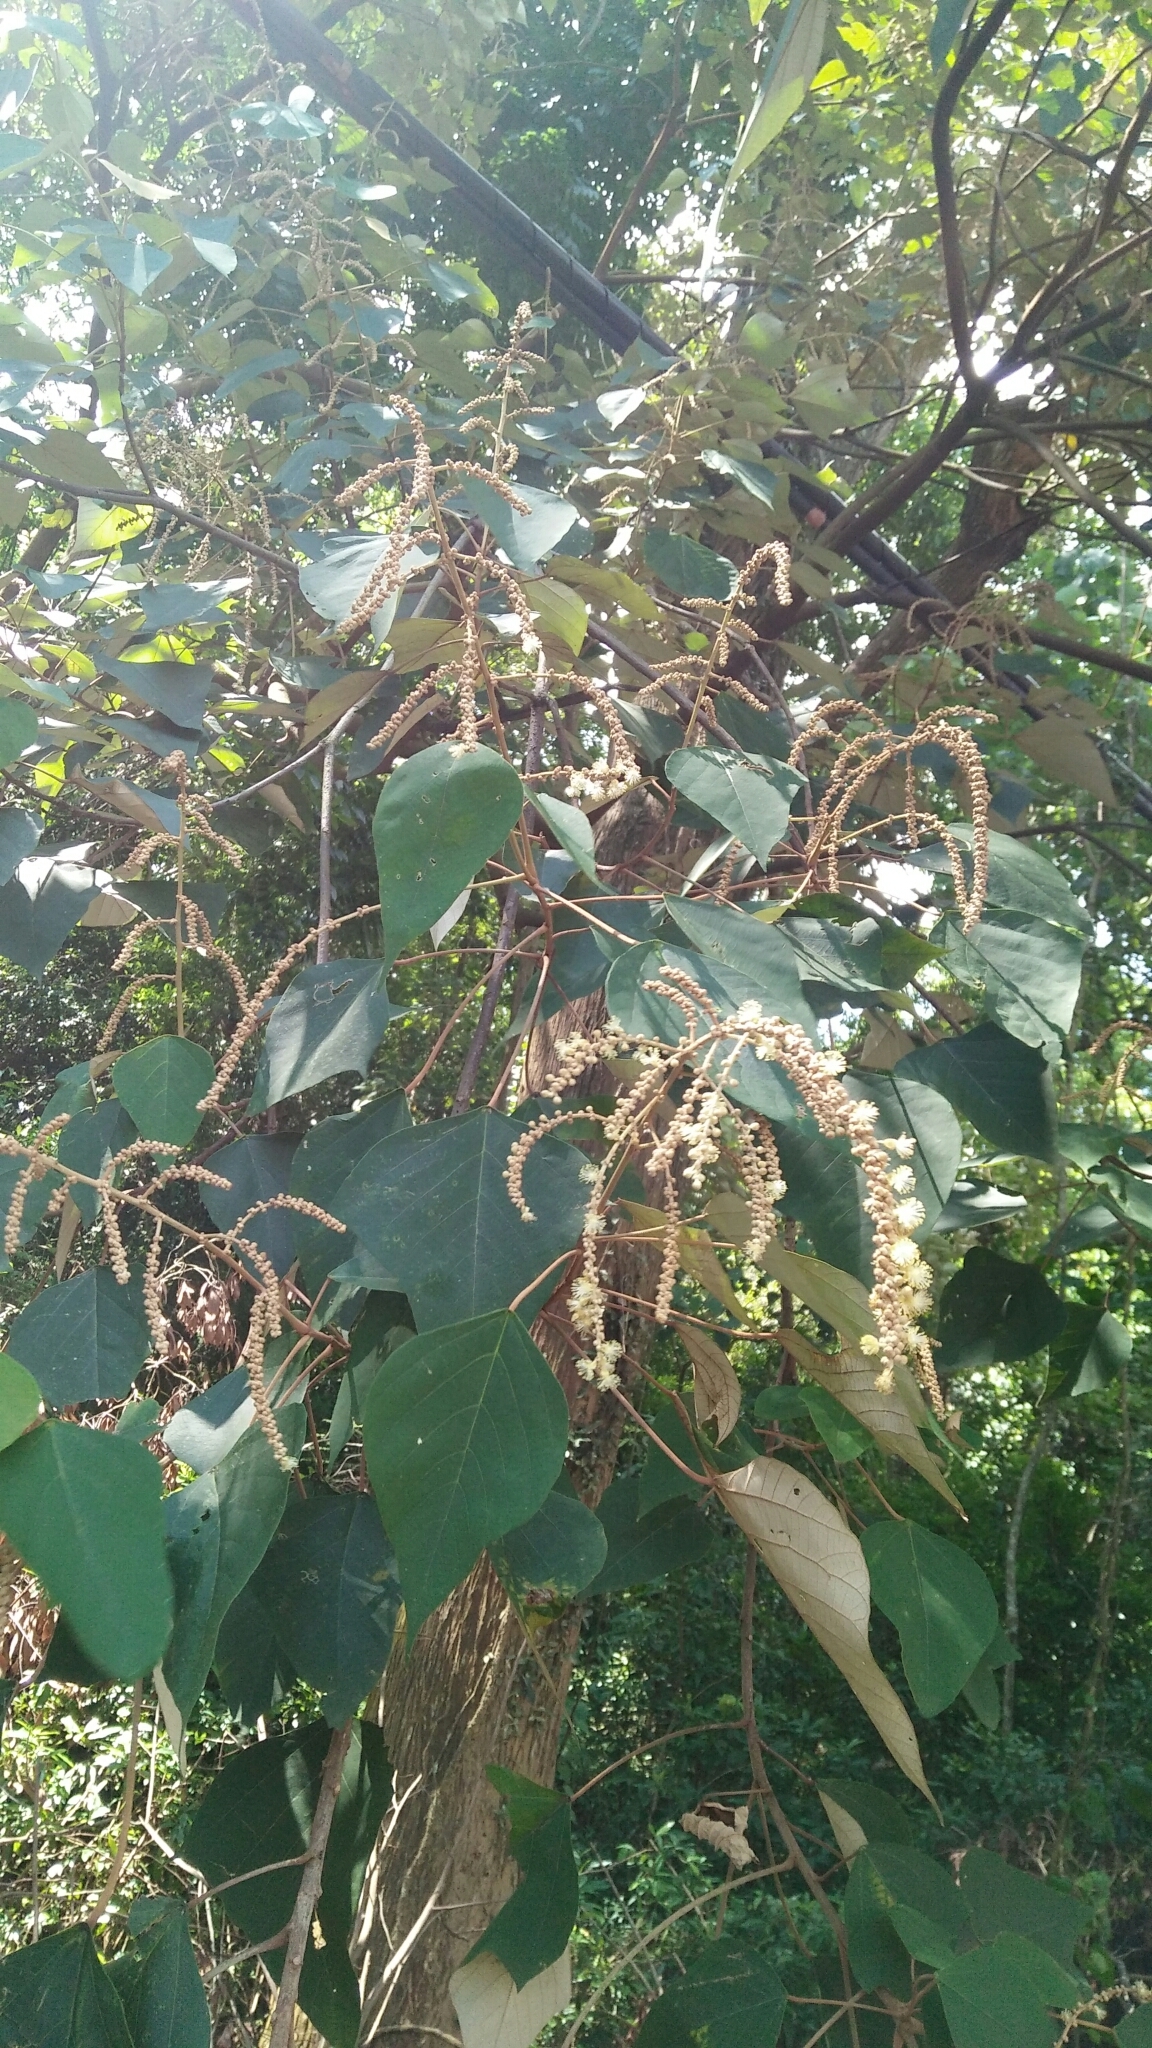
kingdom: Plantae
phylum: Tracheophyta
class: Magnoliopsida
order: Malpighiales
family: Euphorbiaceae
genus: Mallotus
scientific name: Mallotus paniculatus
